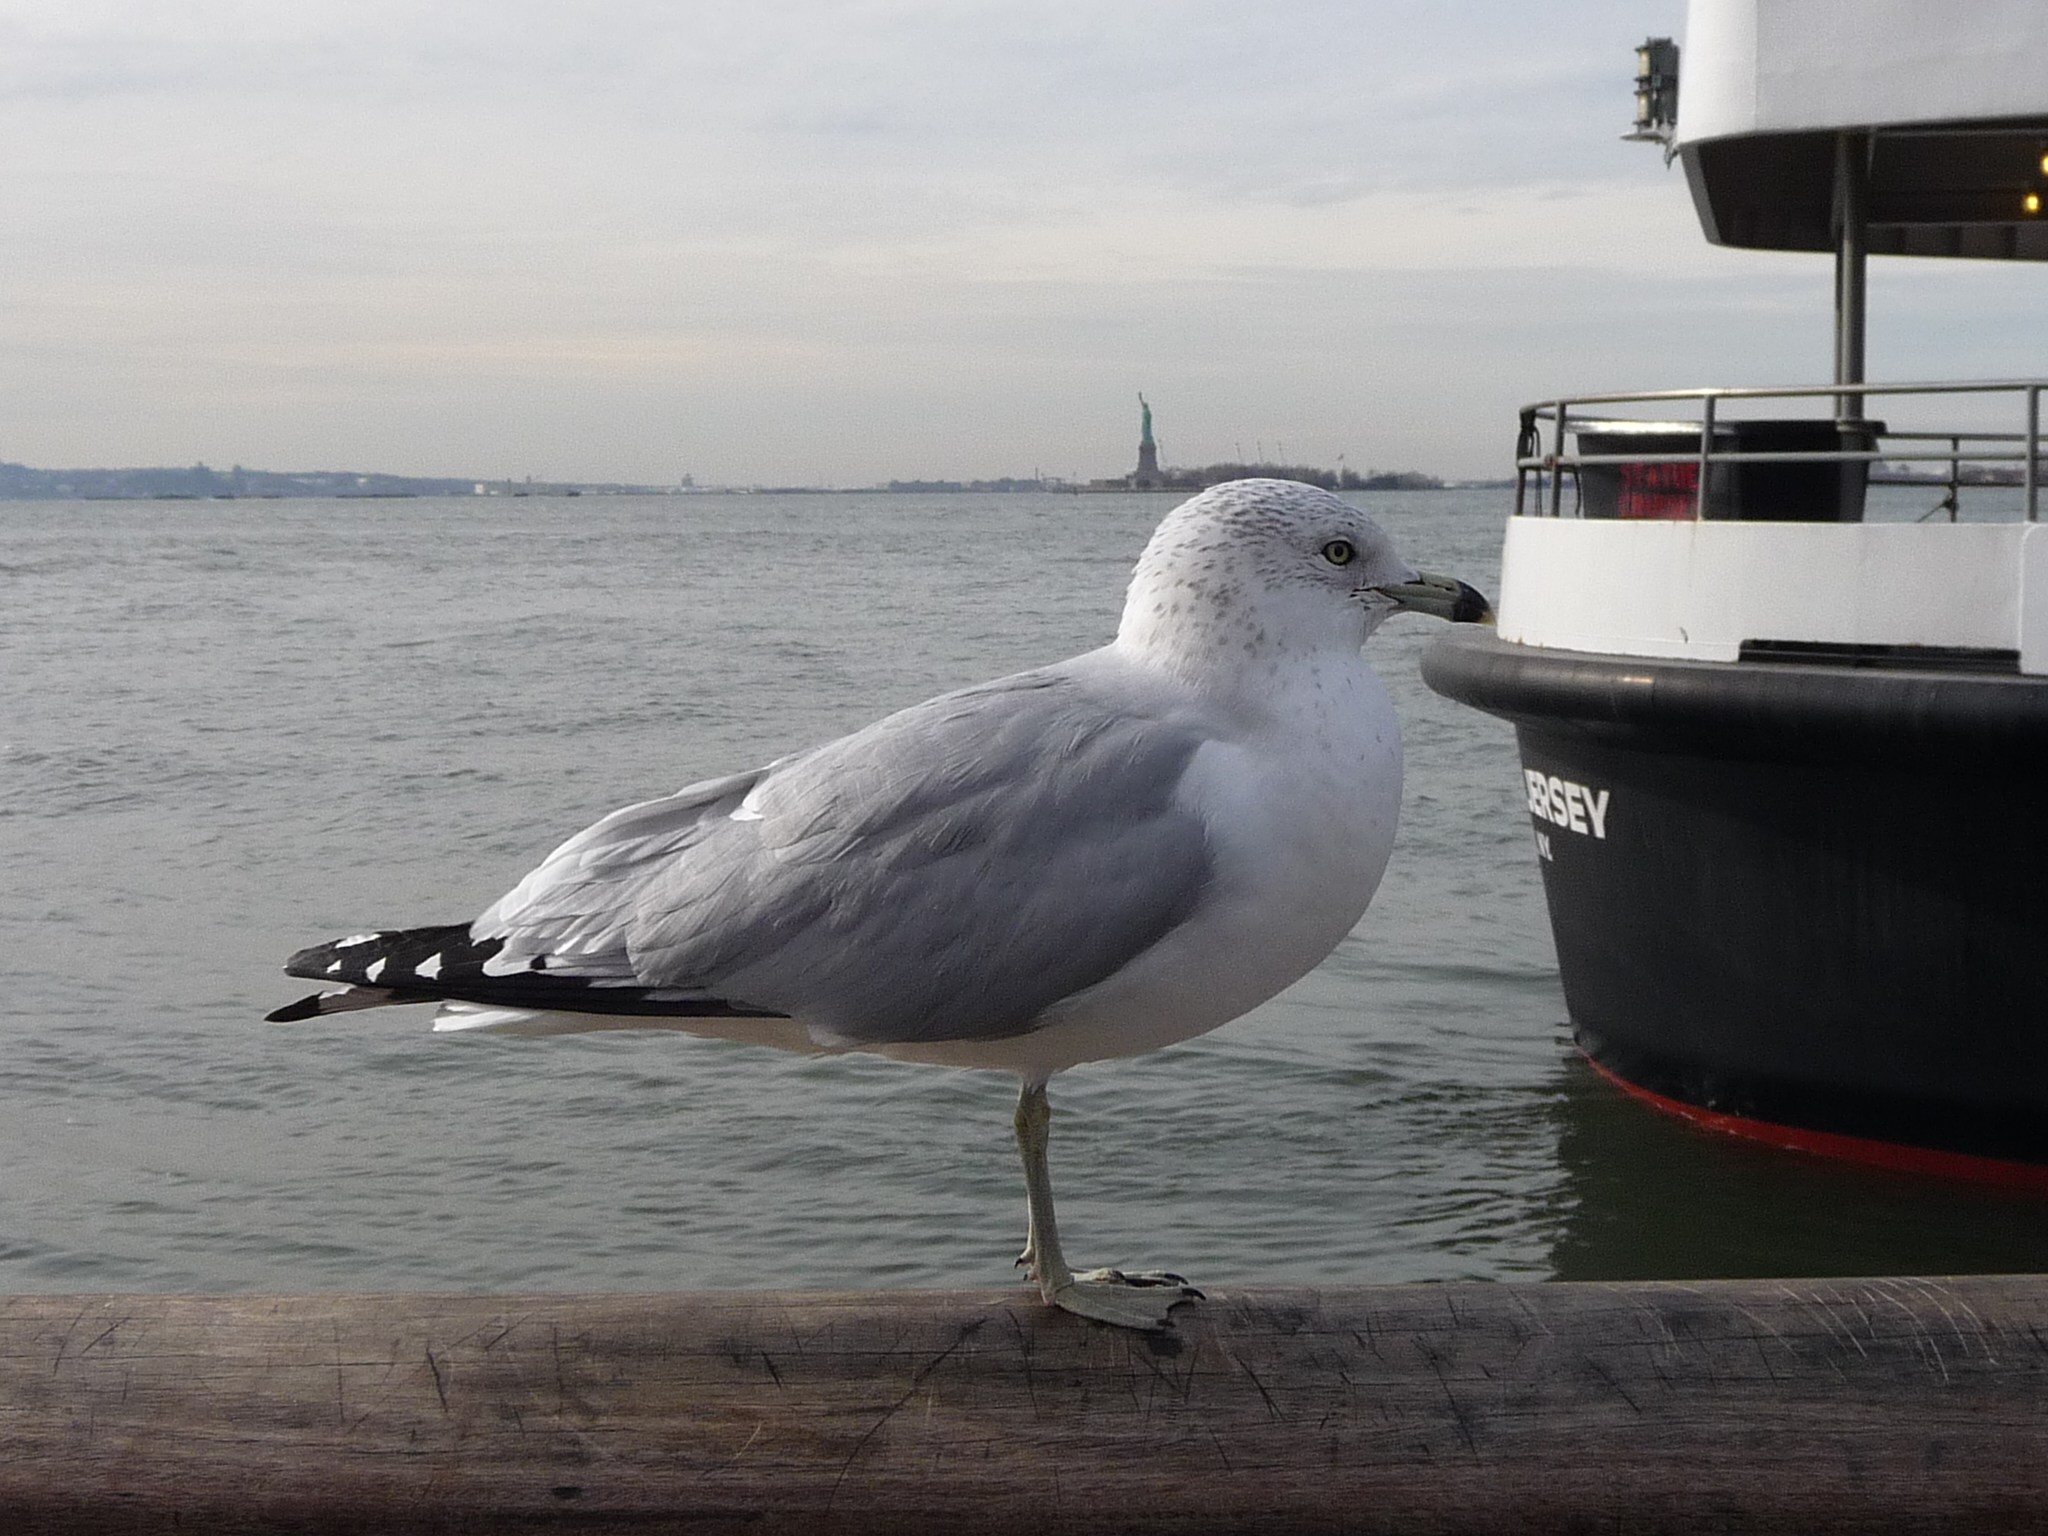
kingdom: Animalia
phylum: Chordata
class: Aves
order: Charadriiformes
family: Laridae
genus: Larus
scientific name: Larus delawarensis
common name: Ring-billed gull
